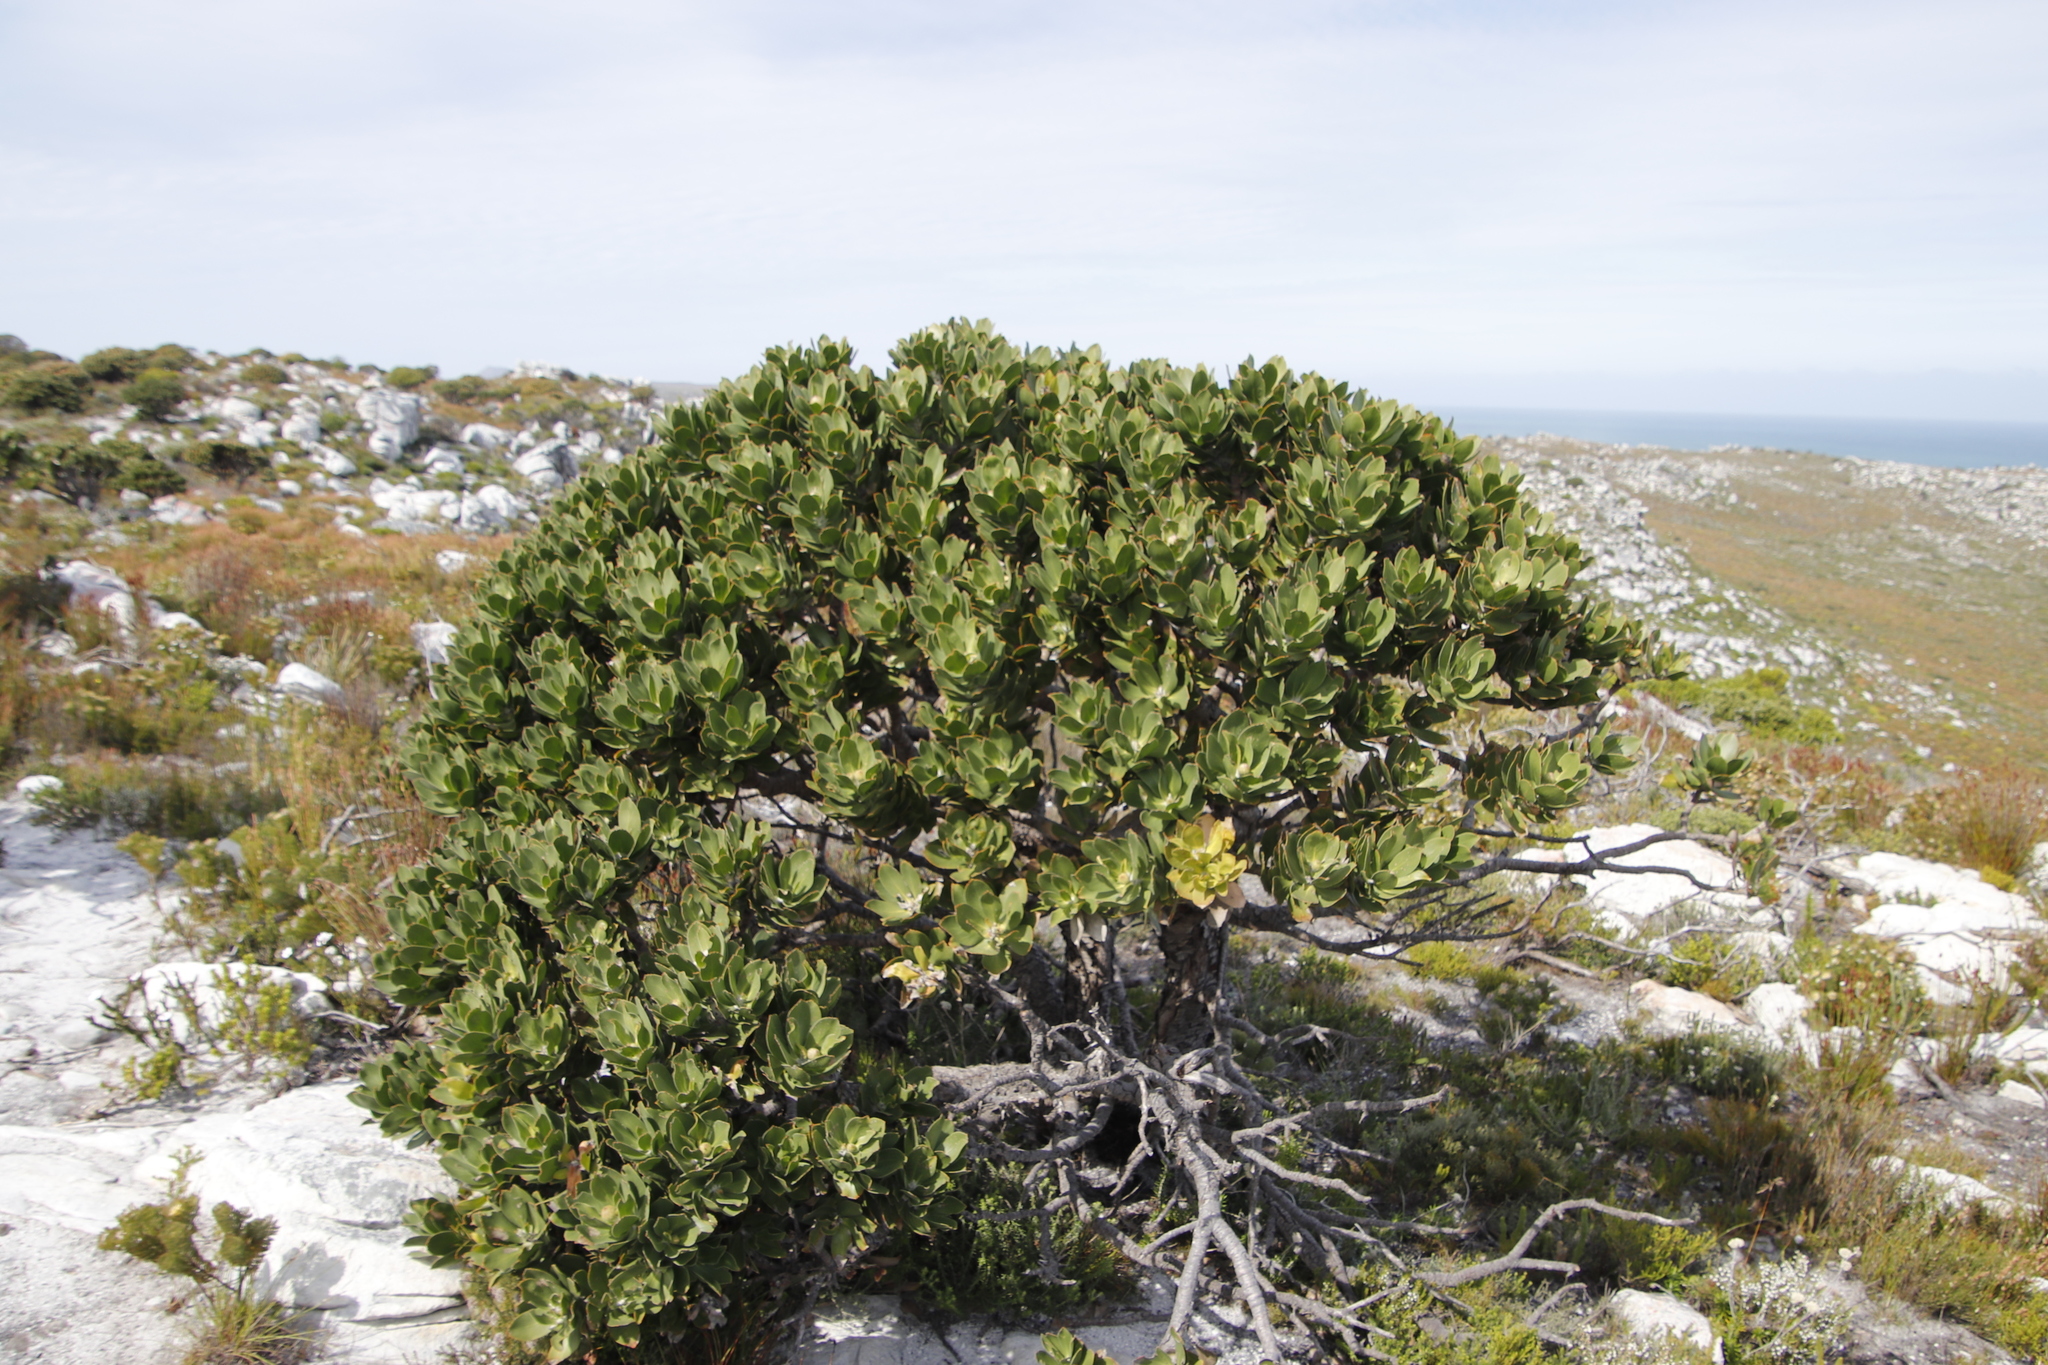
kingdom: Plantae
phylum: Tracheophyta
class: Magnoliopsida
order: Proteales
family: Proteaceae
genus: Leucospermum
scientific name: Leucospermum conocarpodendron
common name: Tree pincushion
